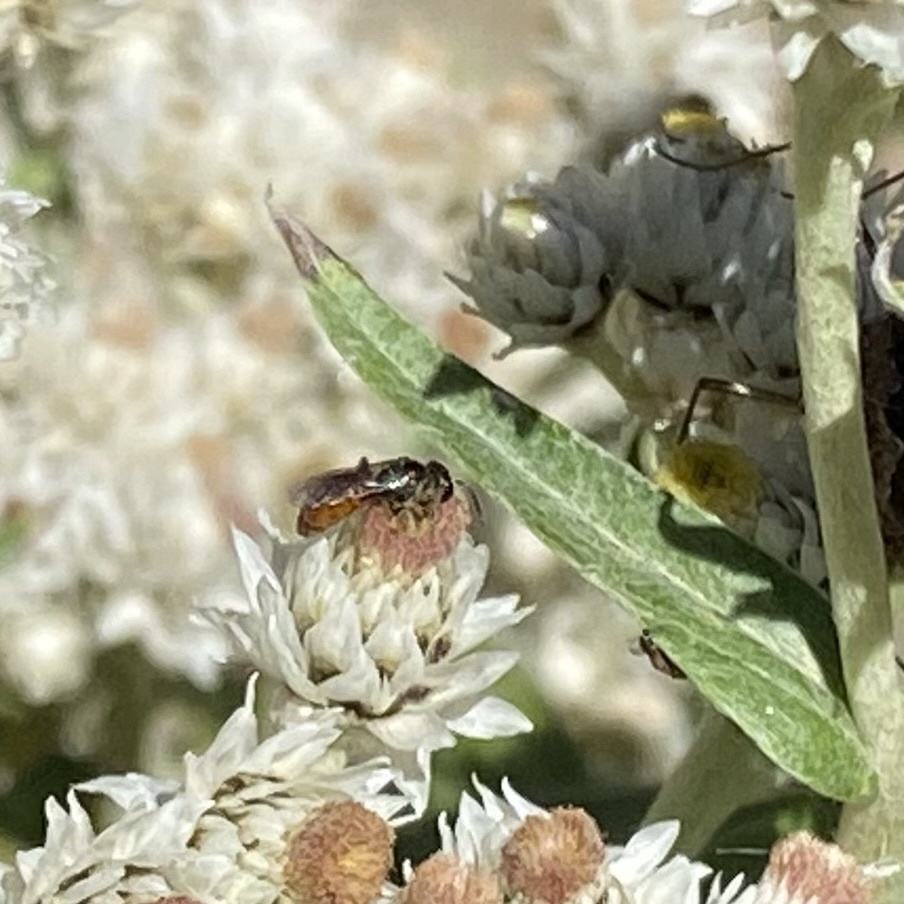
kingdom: Animalia
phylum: Arthropoda
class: Insecta
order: Hymenoptera
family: Halictidae
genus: Dialictus
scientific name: Dialictus
